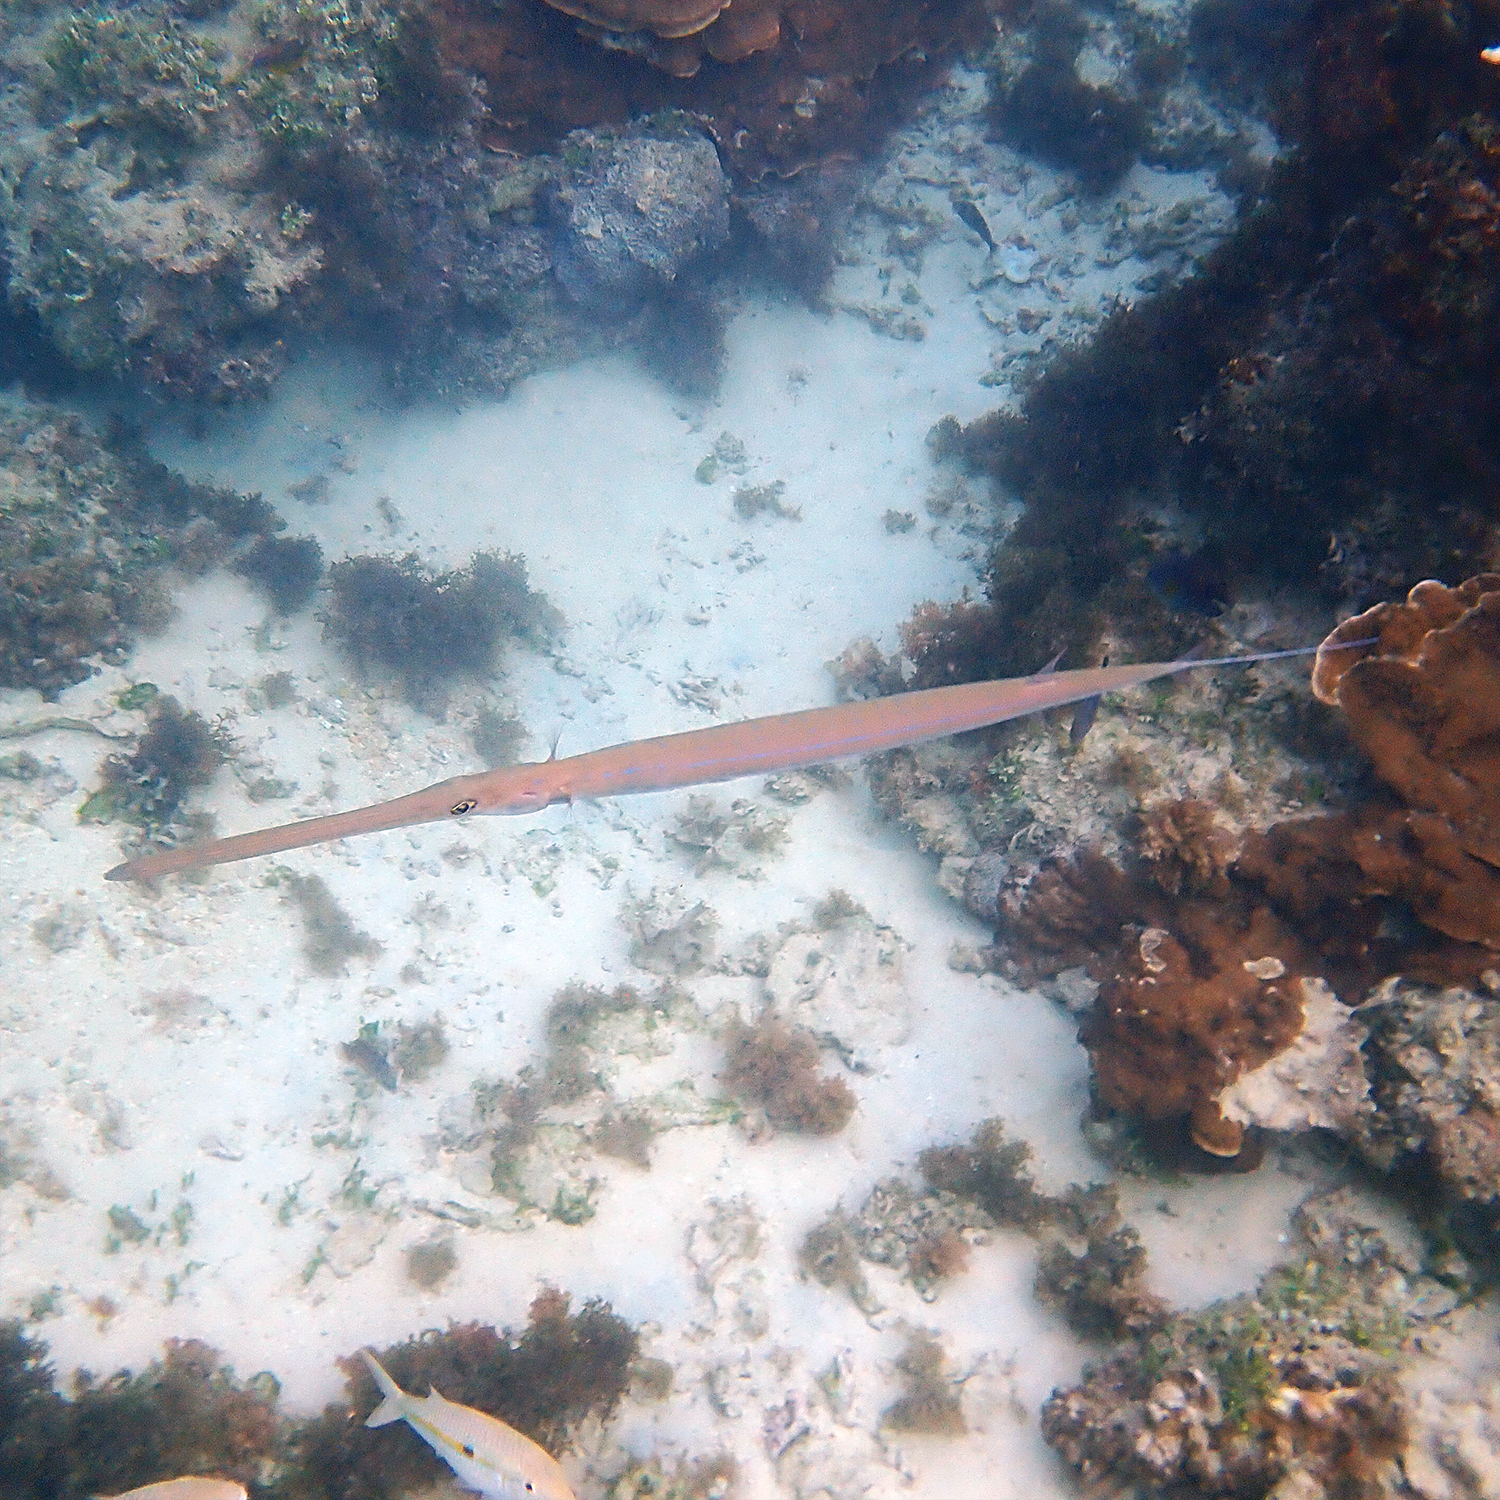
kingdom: Animalia
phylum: Chordata
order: Syngnathiformes
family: Fistulariidae
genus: Fistularia
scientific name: Fistularia commersonii
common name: Bluespotted cornetfish
